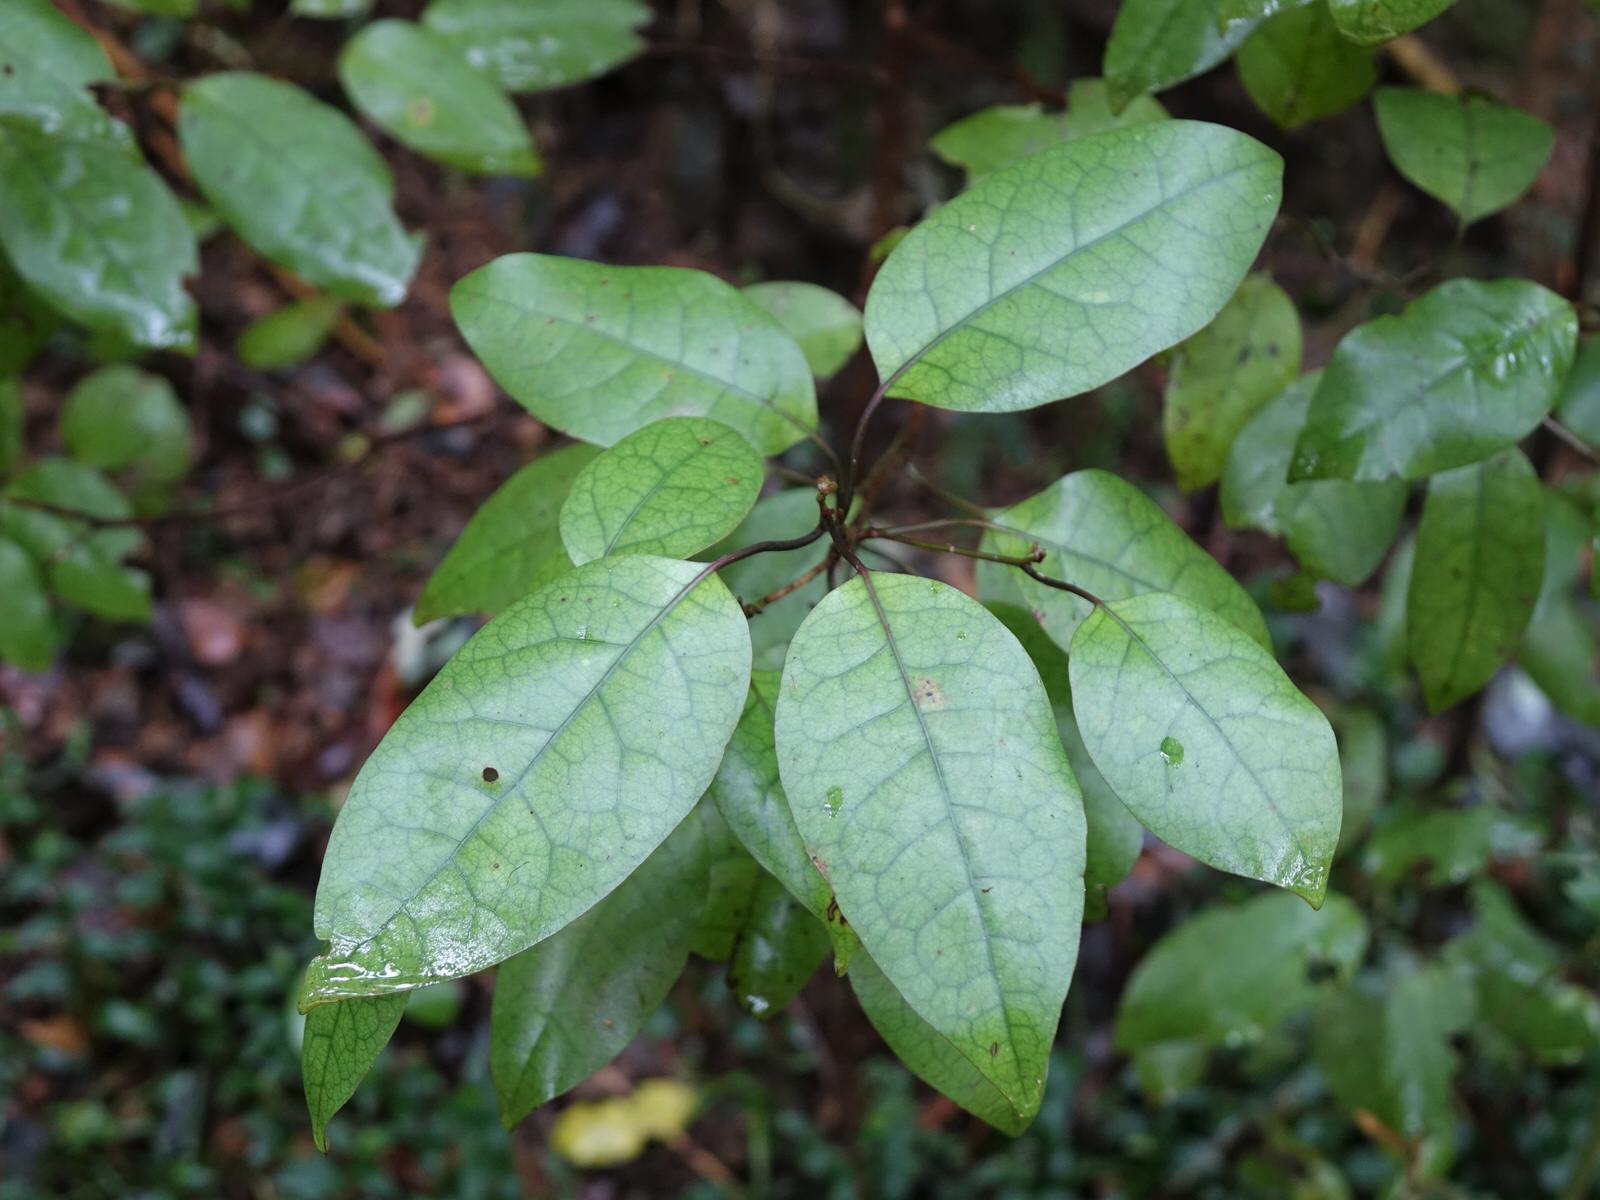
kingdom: Plantae
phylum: Tracheophyta
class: Magnoliopsida
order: Laurales
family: Lauraceae
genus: Litsea
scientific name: Litsea calicaris
